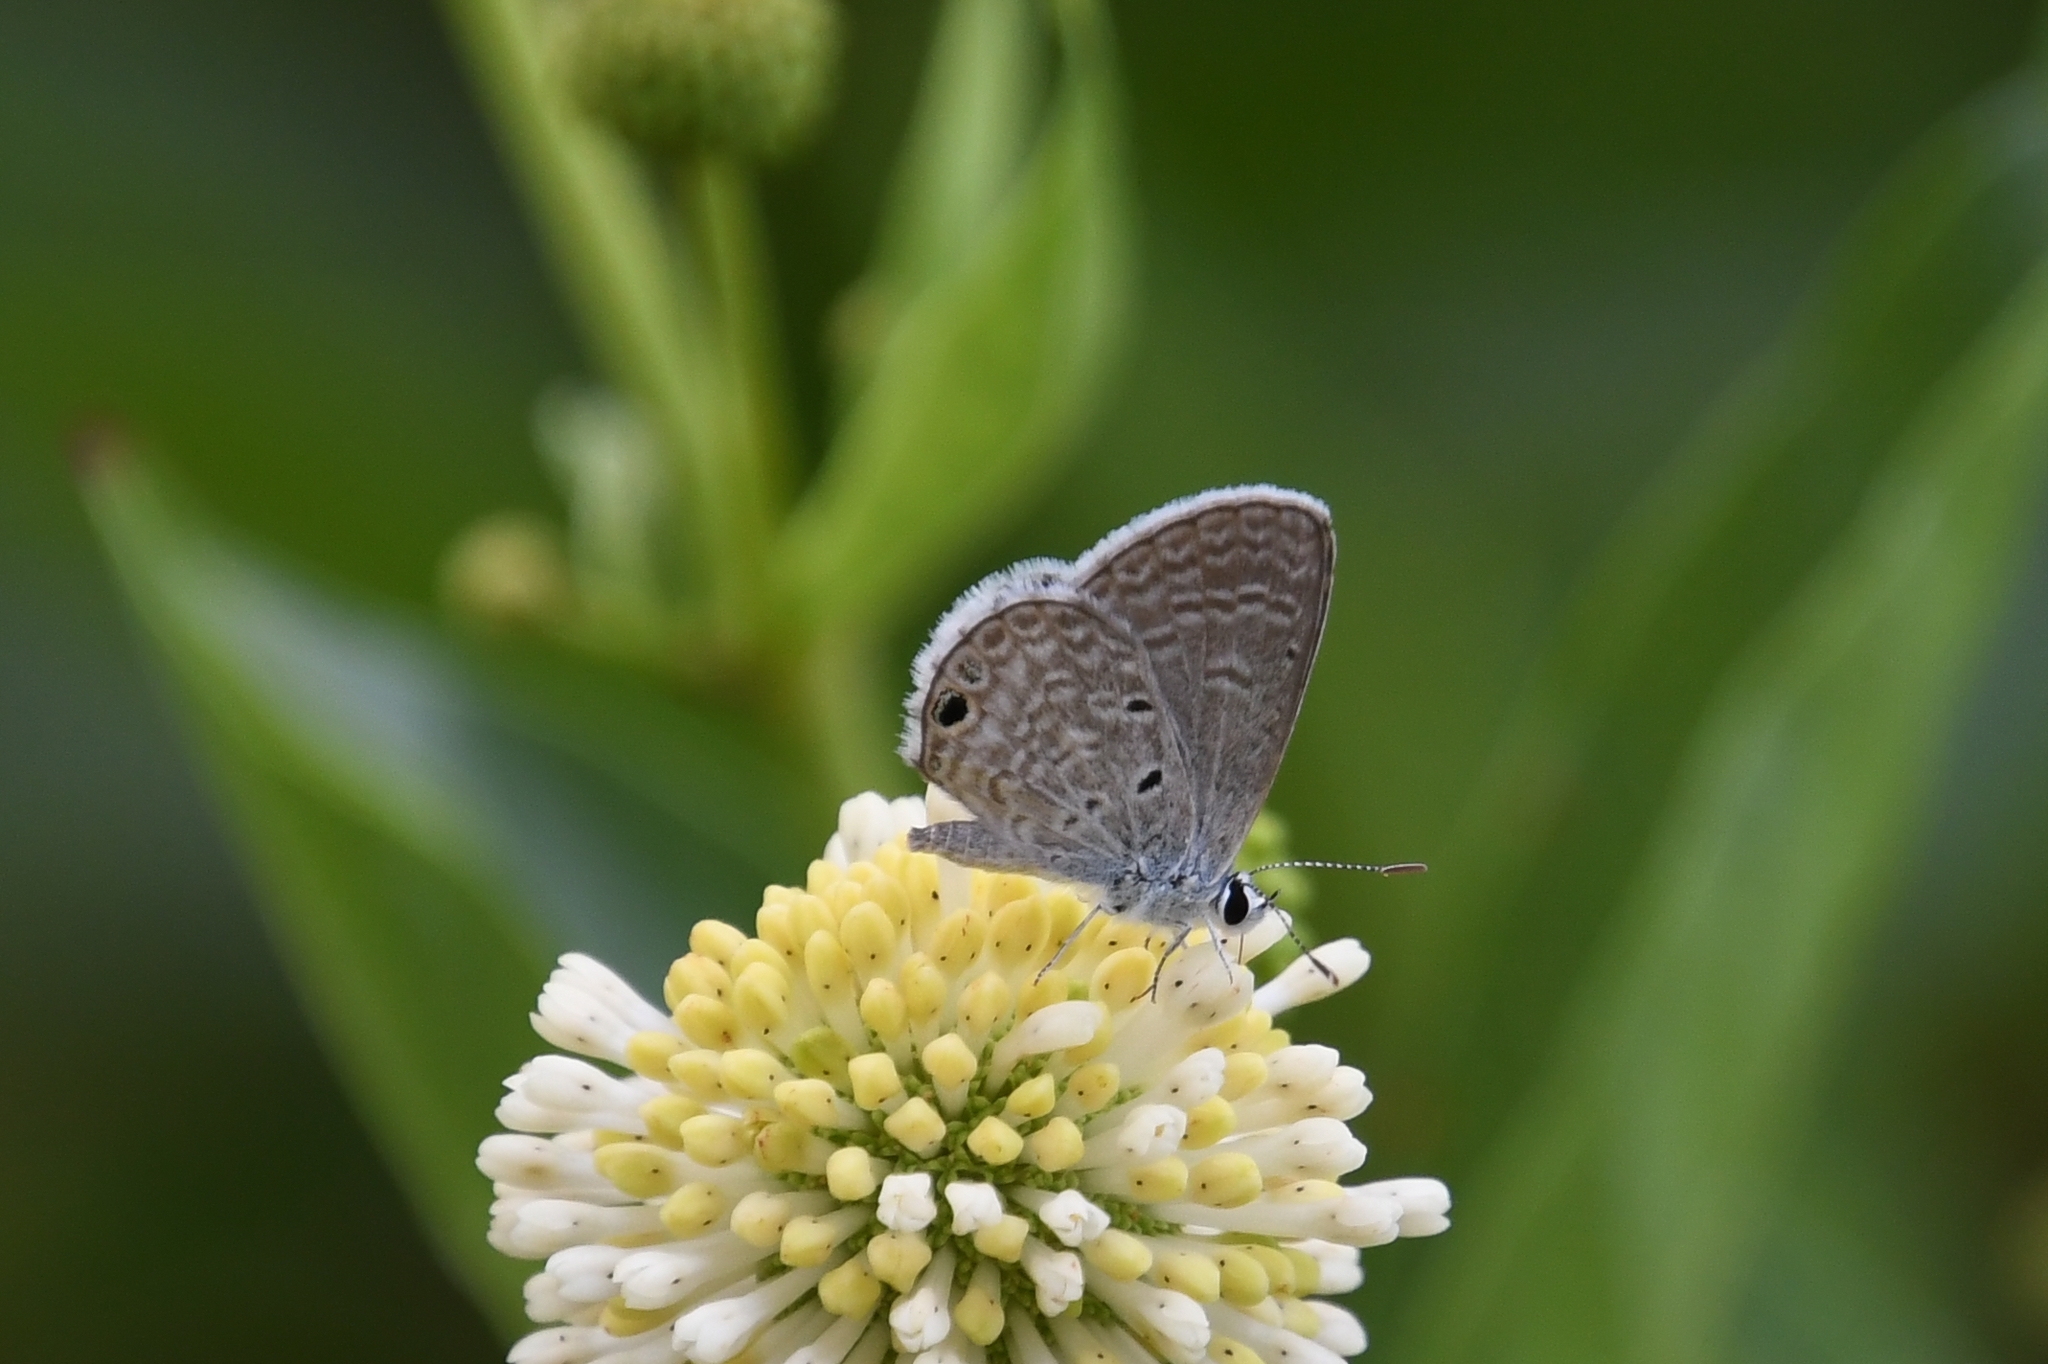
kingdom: Animalia
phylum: Arthropoda
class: Insecta
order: Lepidoptera
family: Lycaenidae
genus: Hemiargus
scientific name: Hemiargus ceraunus
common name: Ceraunus blue
